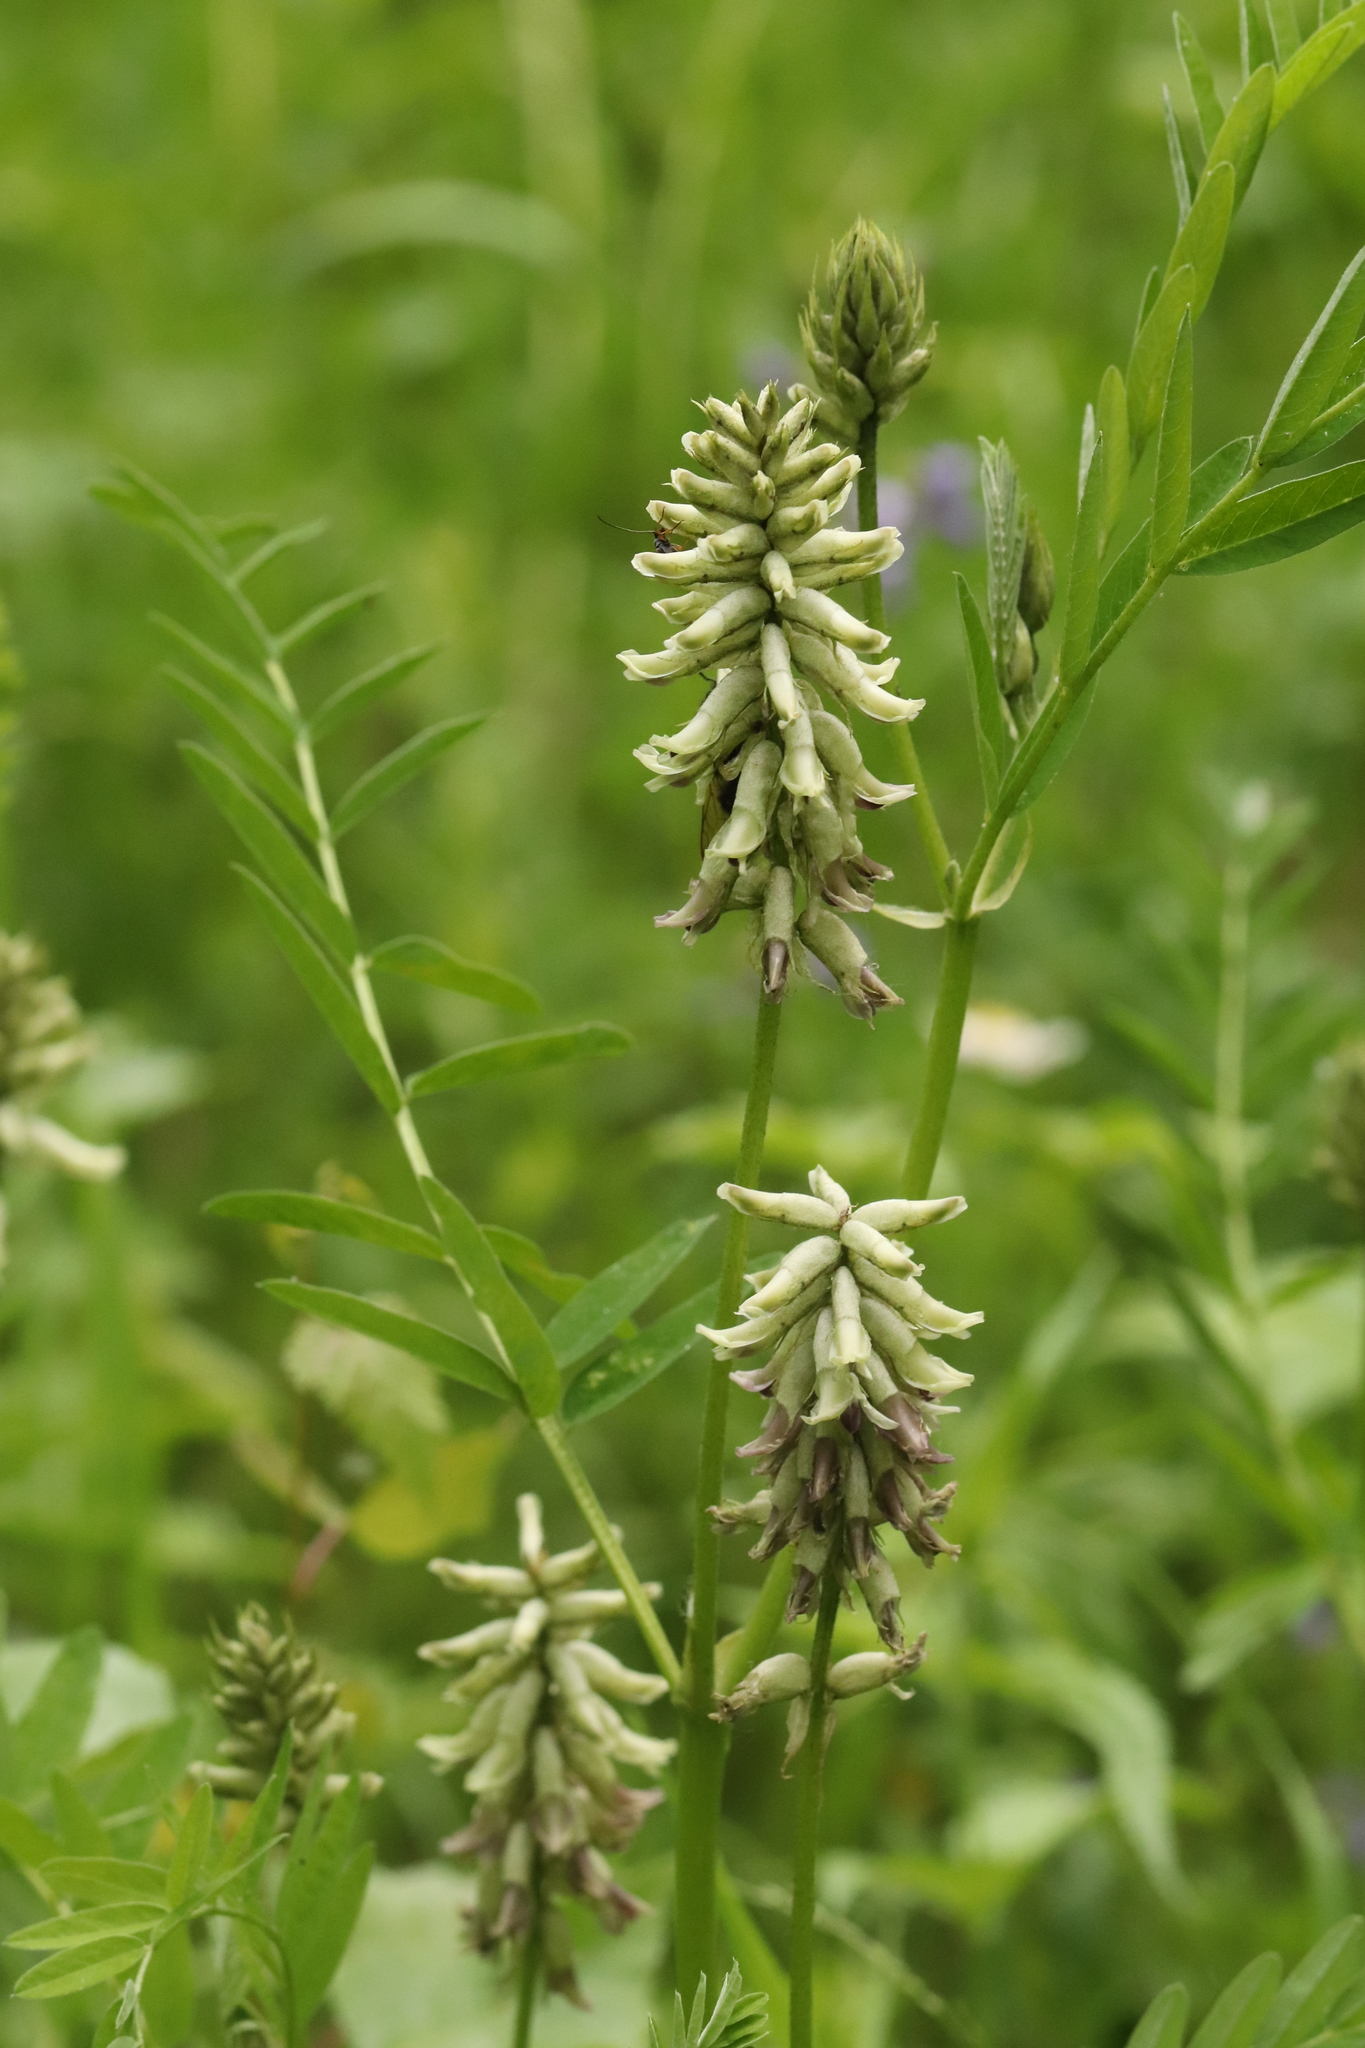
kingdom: Plantae
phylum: Tracheophyta
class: Magnoliopsida
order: Fabales
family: Fabaceae
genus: Astragalus
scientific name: Astragalus uliginosus
